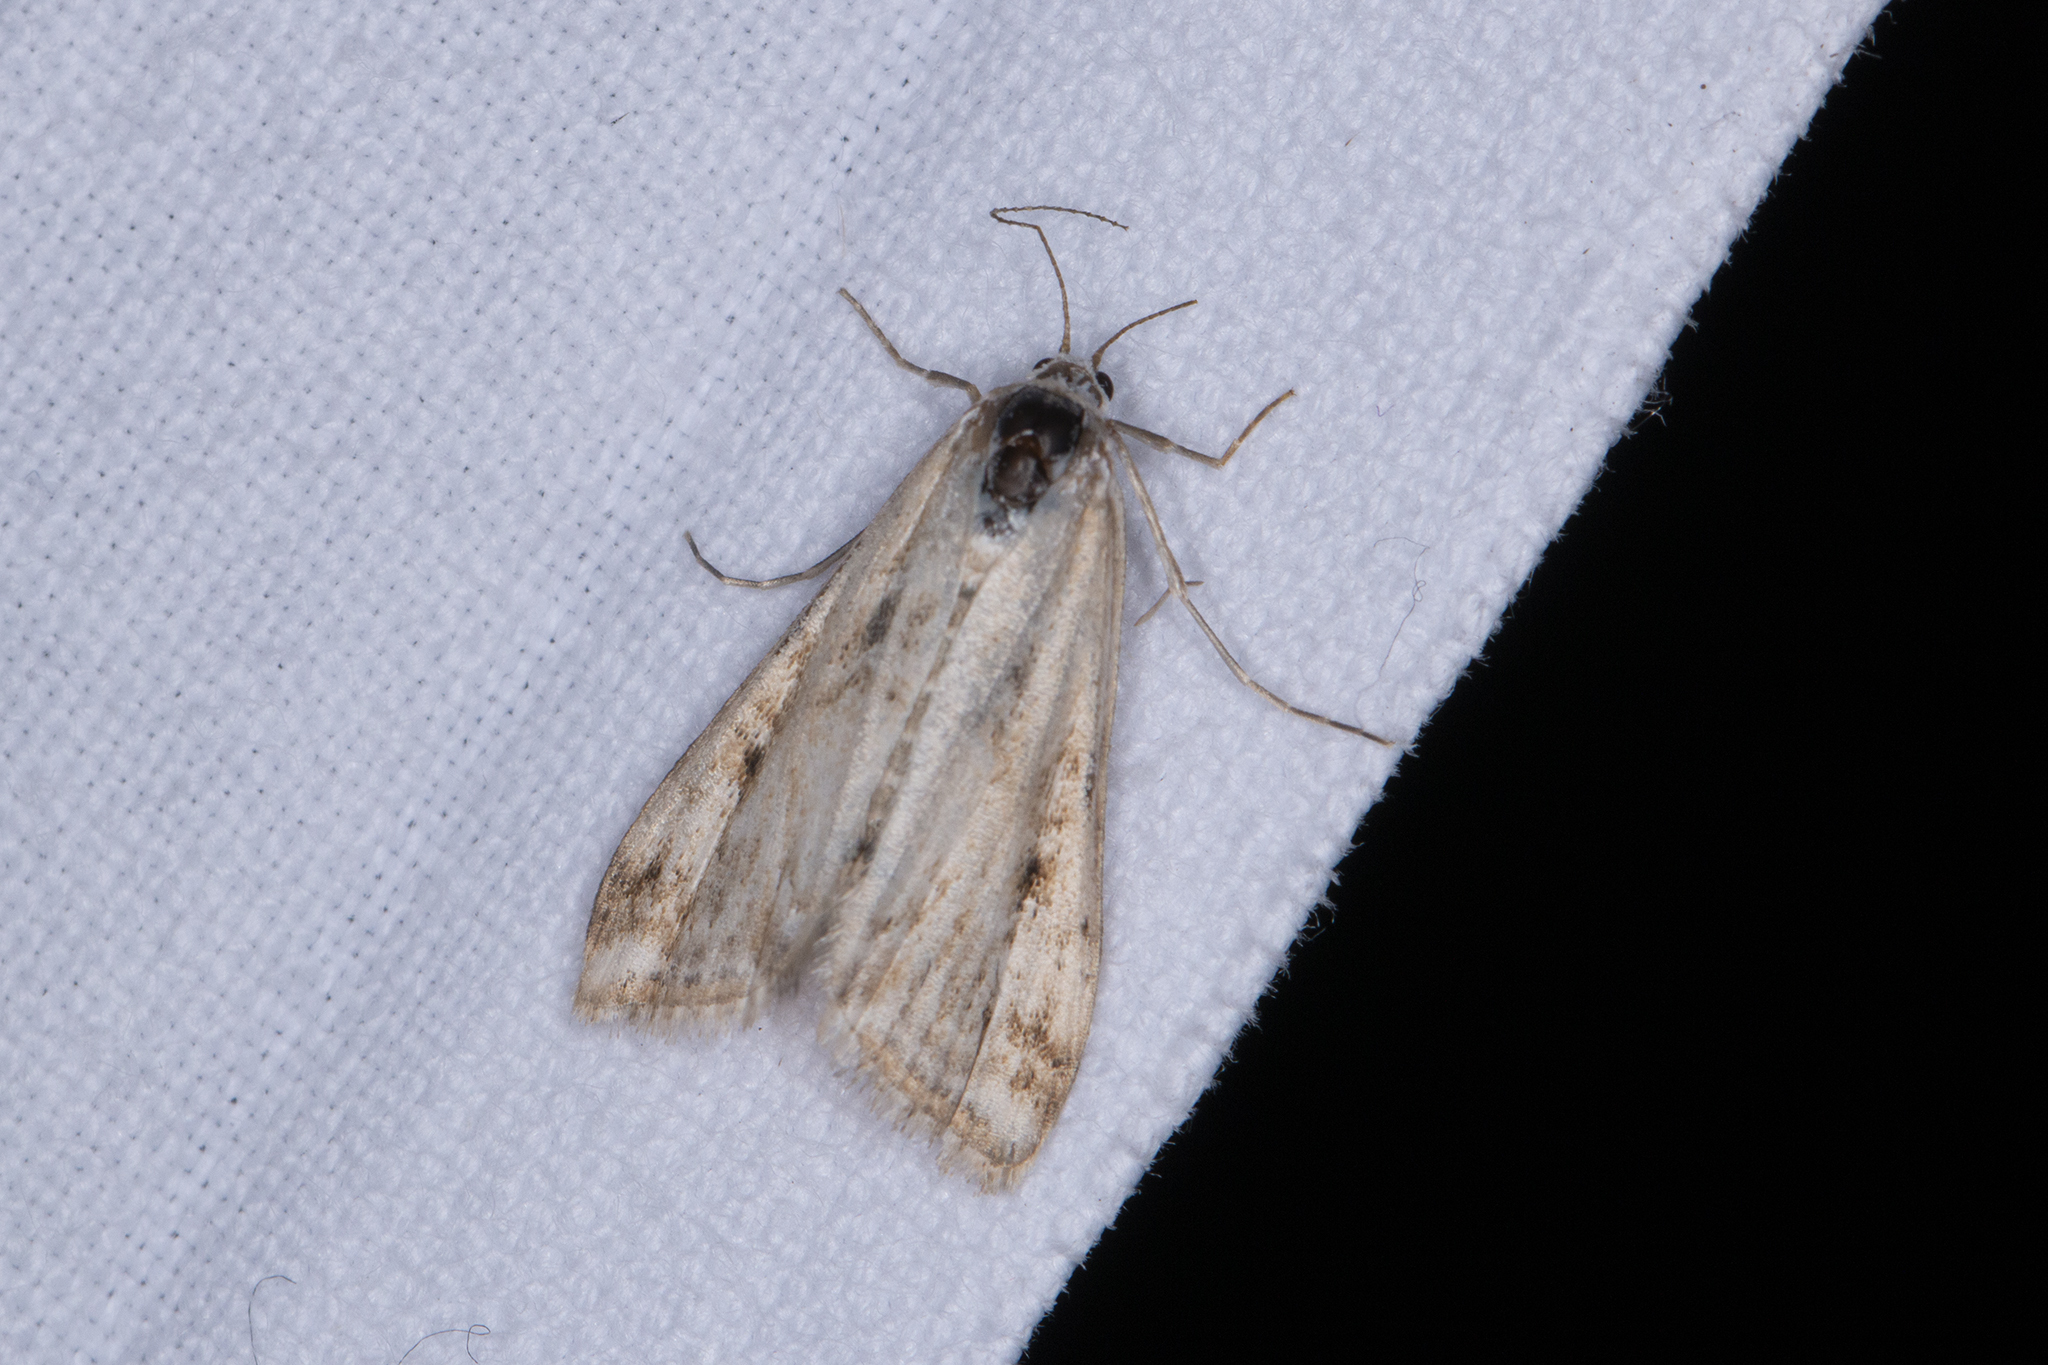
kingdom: Animalia
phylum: Arthropoda
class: Insecta
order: Lepidoptera
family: Crambidae
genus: Cataclysta
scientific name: Cataclysta lemnata
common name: Small china-mark
